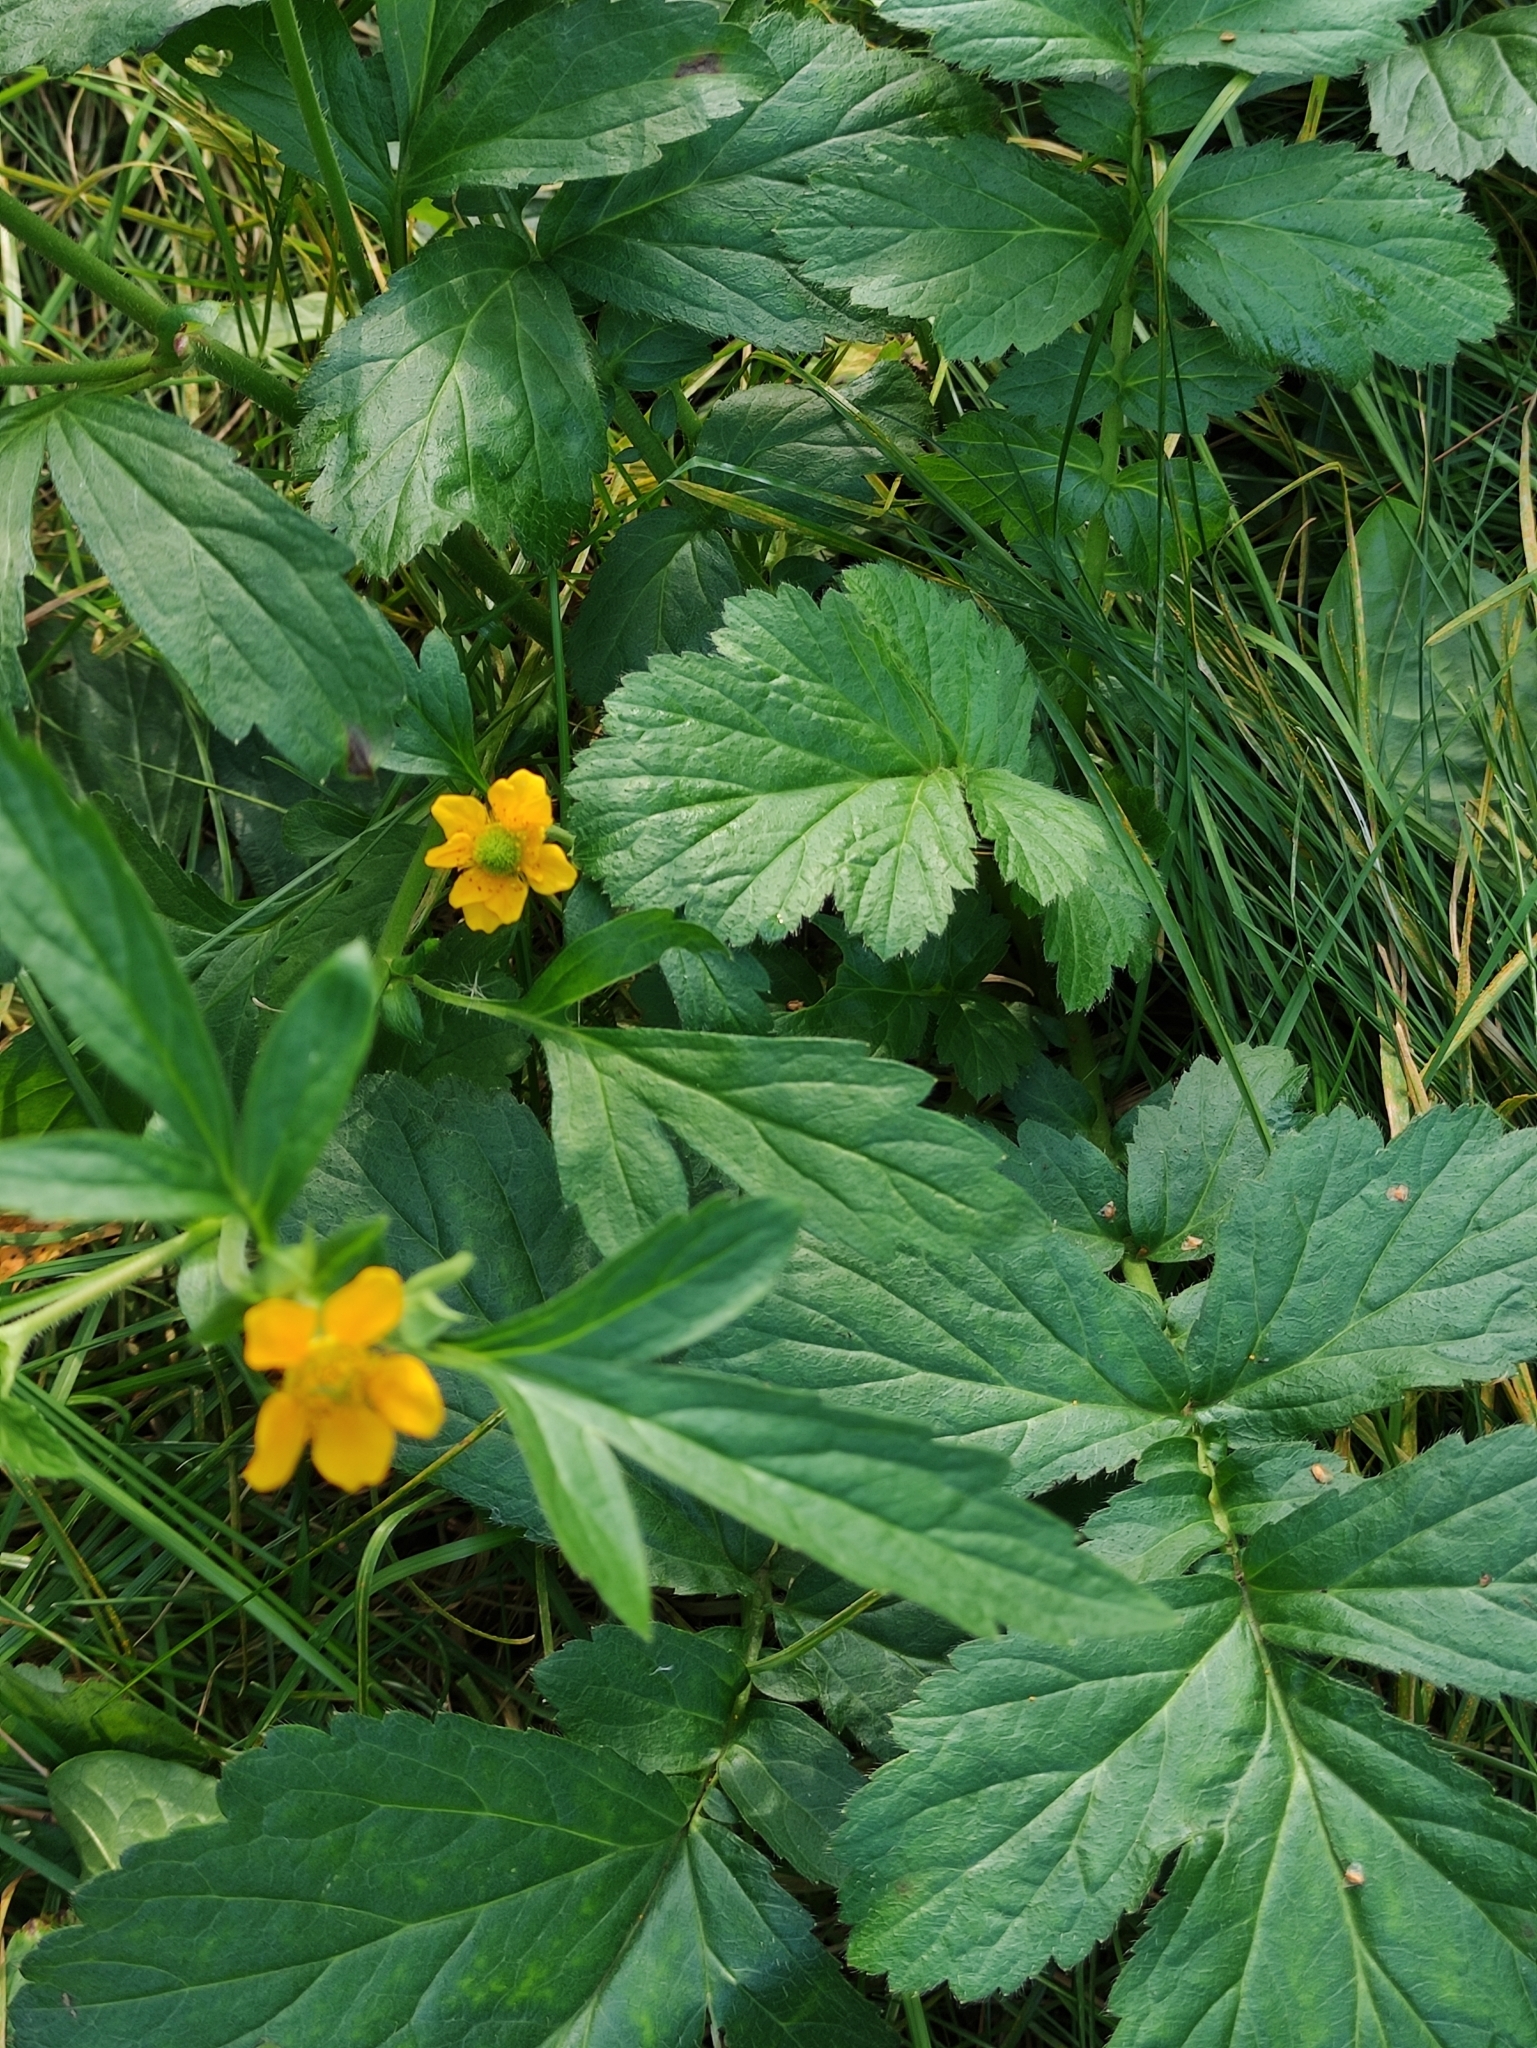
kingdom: Plantae
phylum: Tracheophyta
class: Magnoliopsida
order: Rosales
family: Rosaceae
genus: Geum
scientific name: Geum aleppicum
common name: Yellow avens
